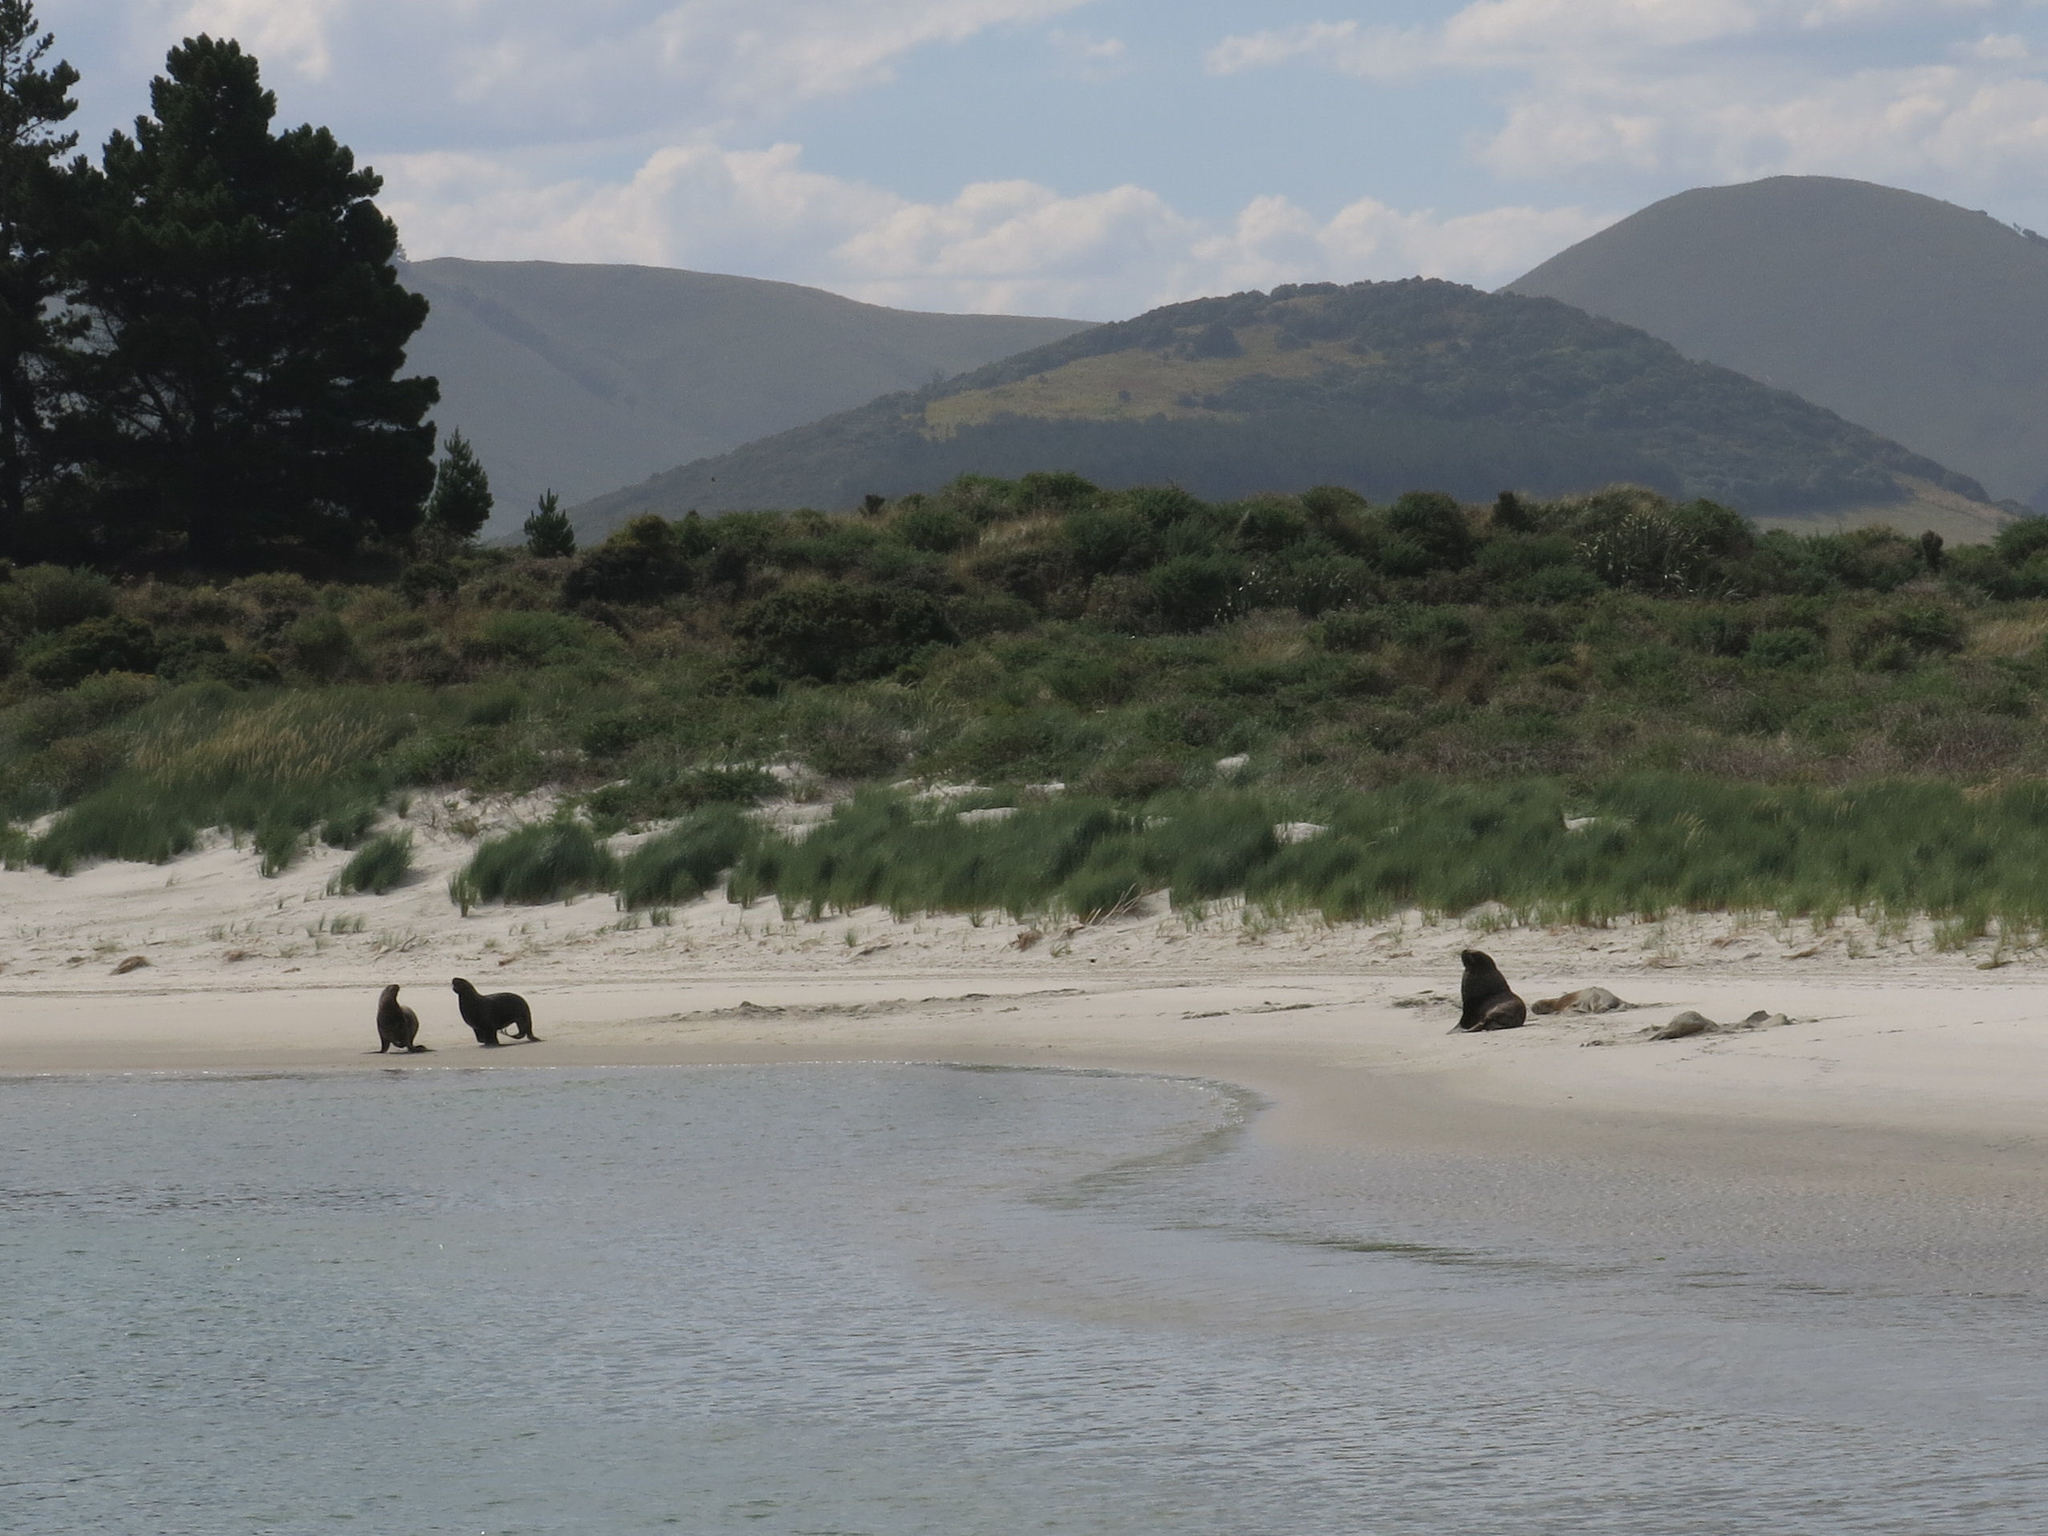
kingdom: Animalia
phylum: Chordata
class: Mammalia
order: Carnivora
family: Otariidae
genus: Phocarctos
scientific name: Phocarctos hookeri
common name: New zealand sea lion
